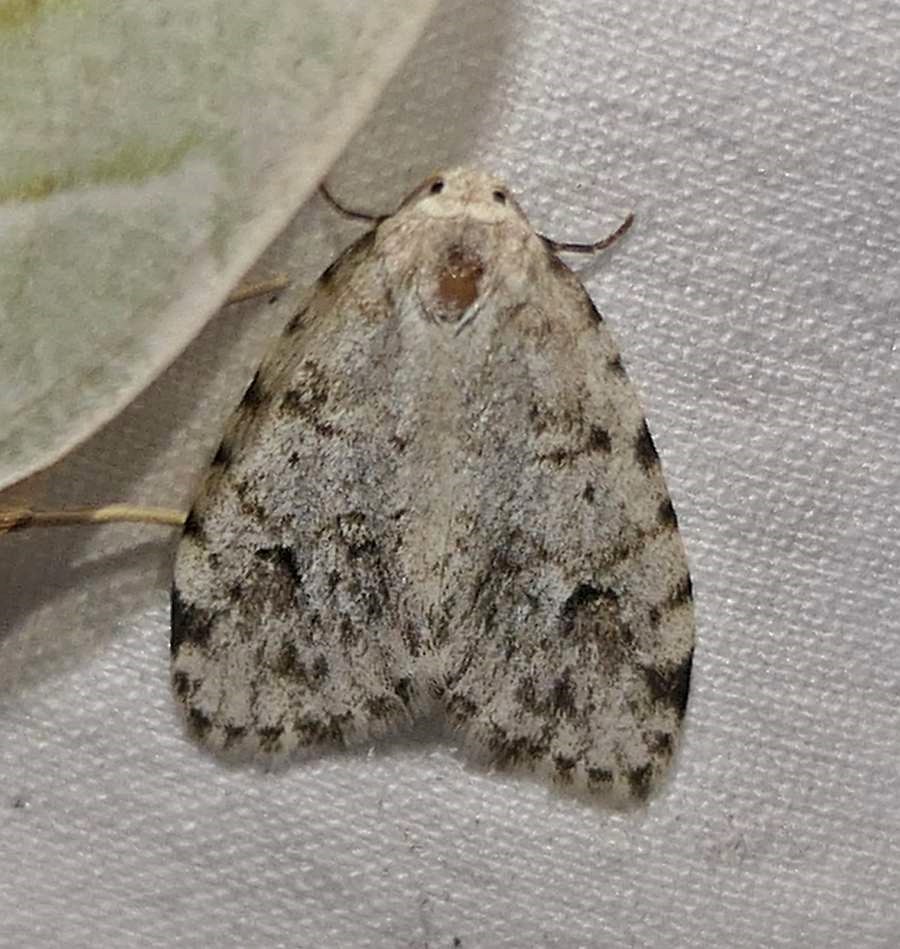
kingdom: Animalia
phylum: Arthropoda
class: Insecta
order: Lepidoptera
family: Erebidae
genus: Clemensia
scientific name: Clemensia albata
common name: Little white lichen moth
